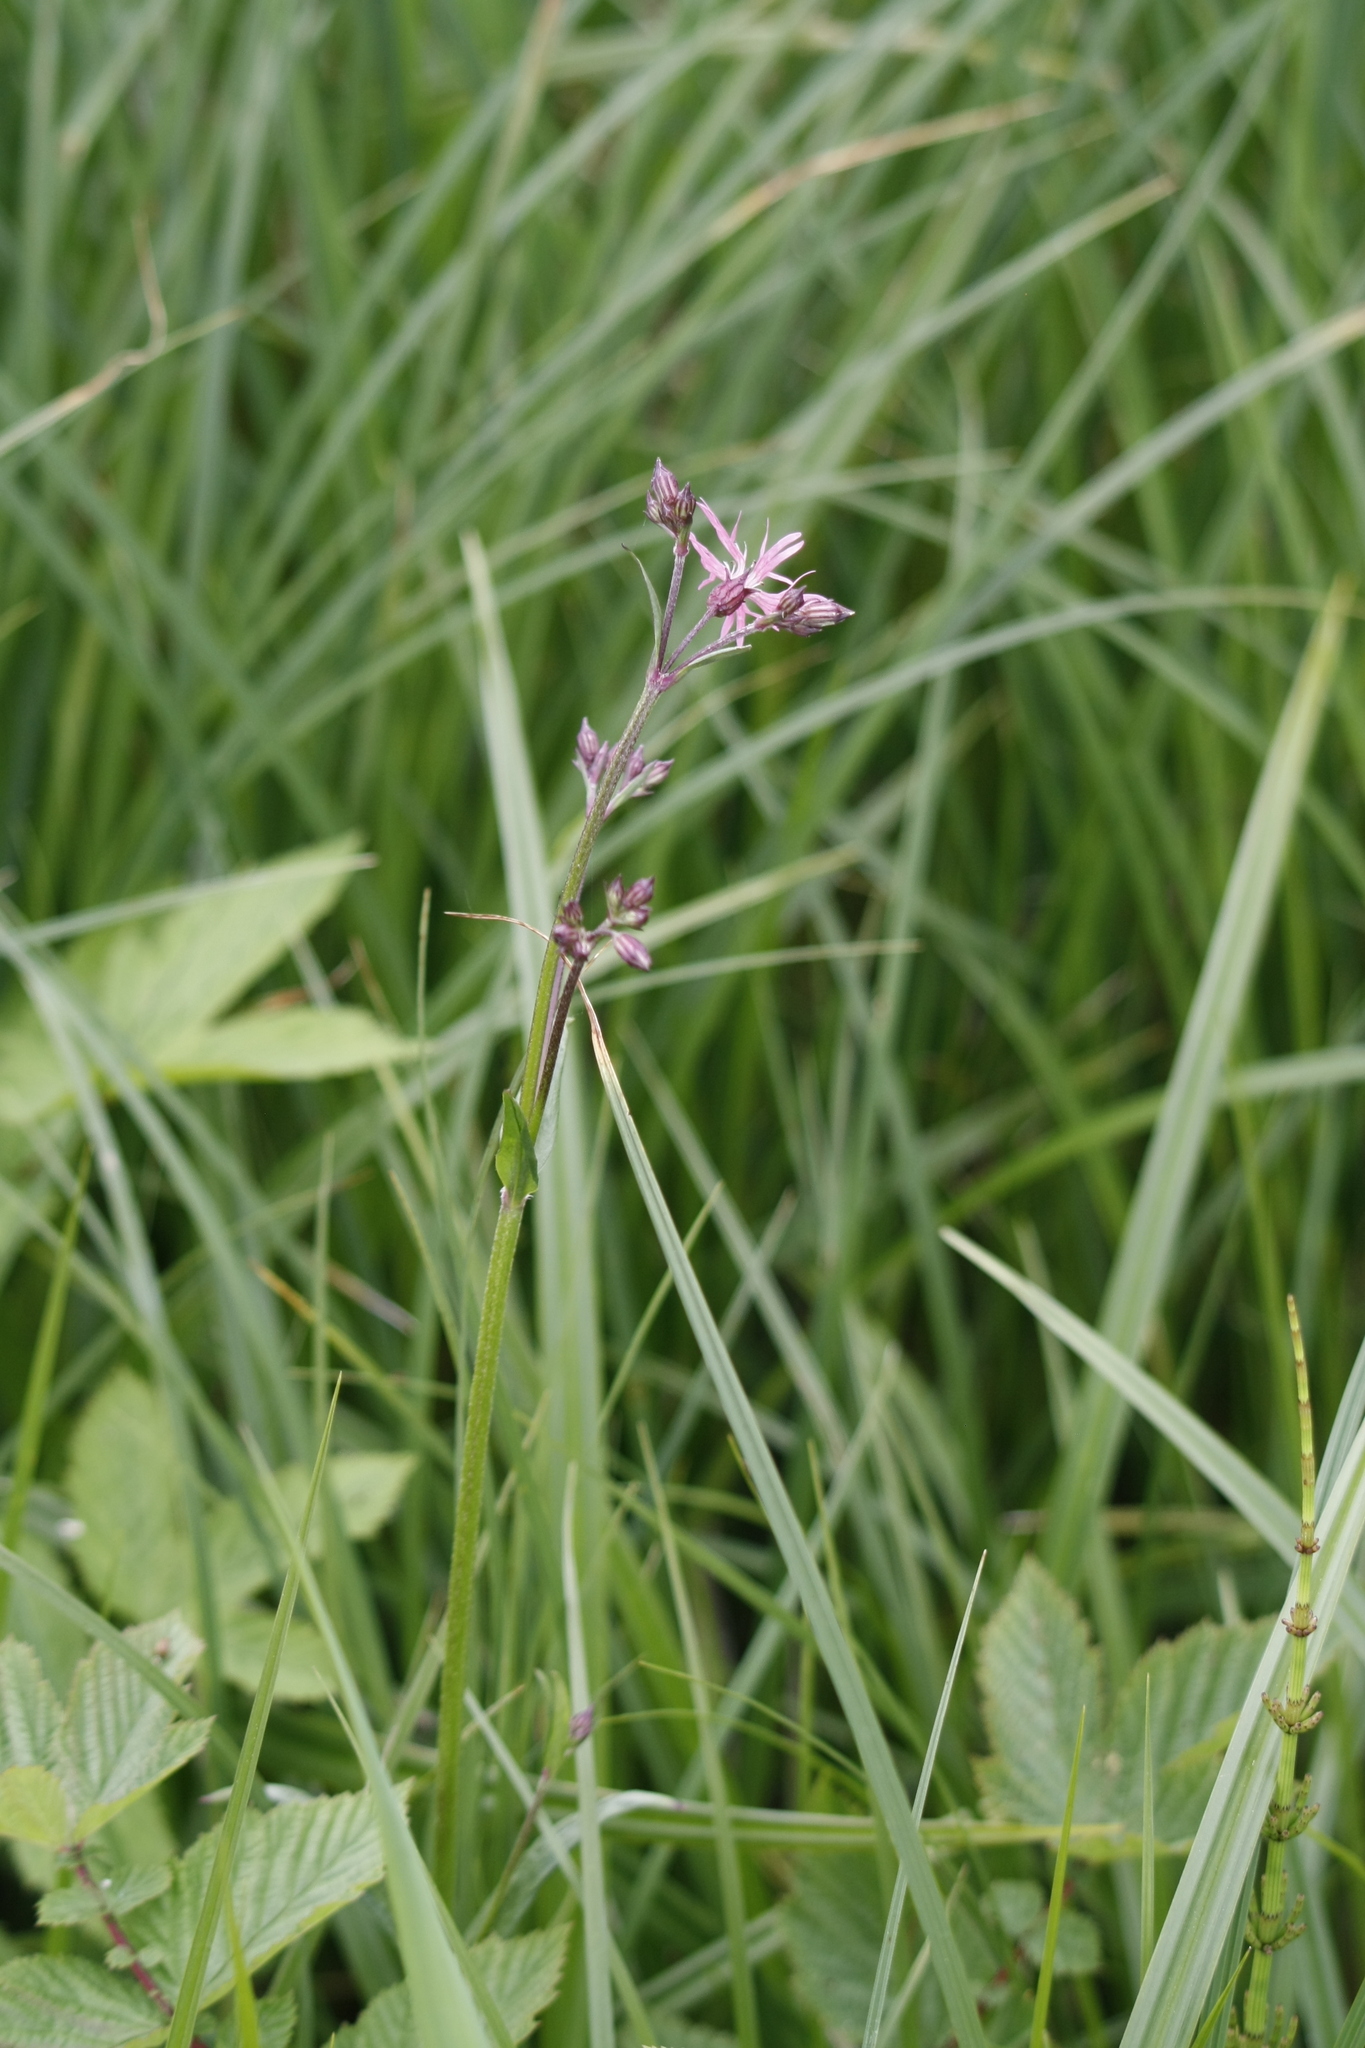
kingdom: Plantae
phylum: Tracheophyta
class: Magnoliopsida
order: Caryophyllales
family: Caryophyllaceae
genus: Silene
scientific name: Silene flos-cuculi
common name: Ragged-robin
